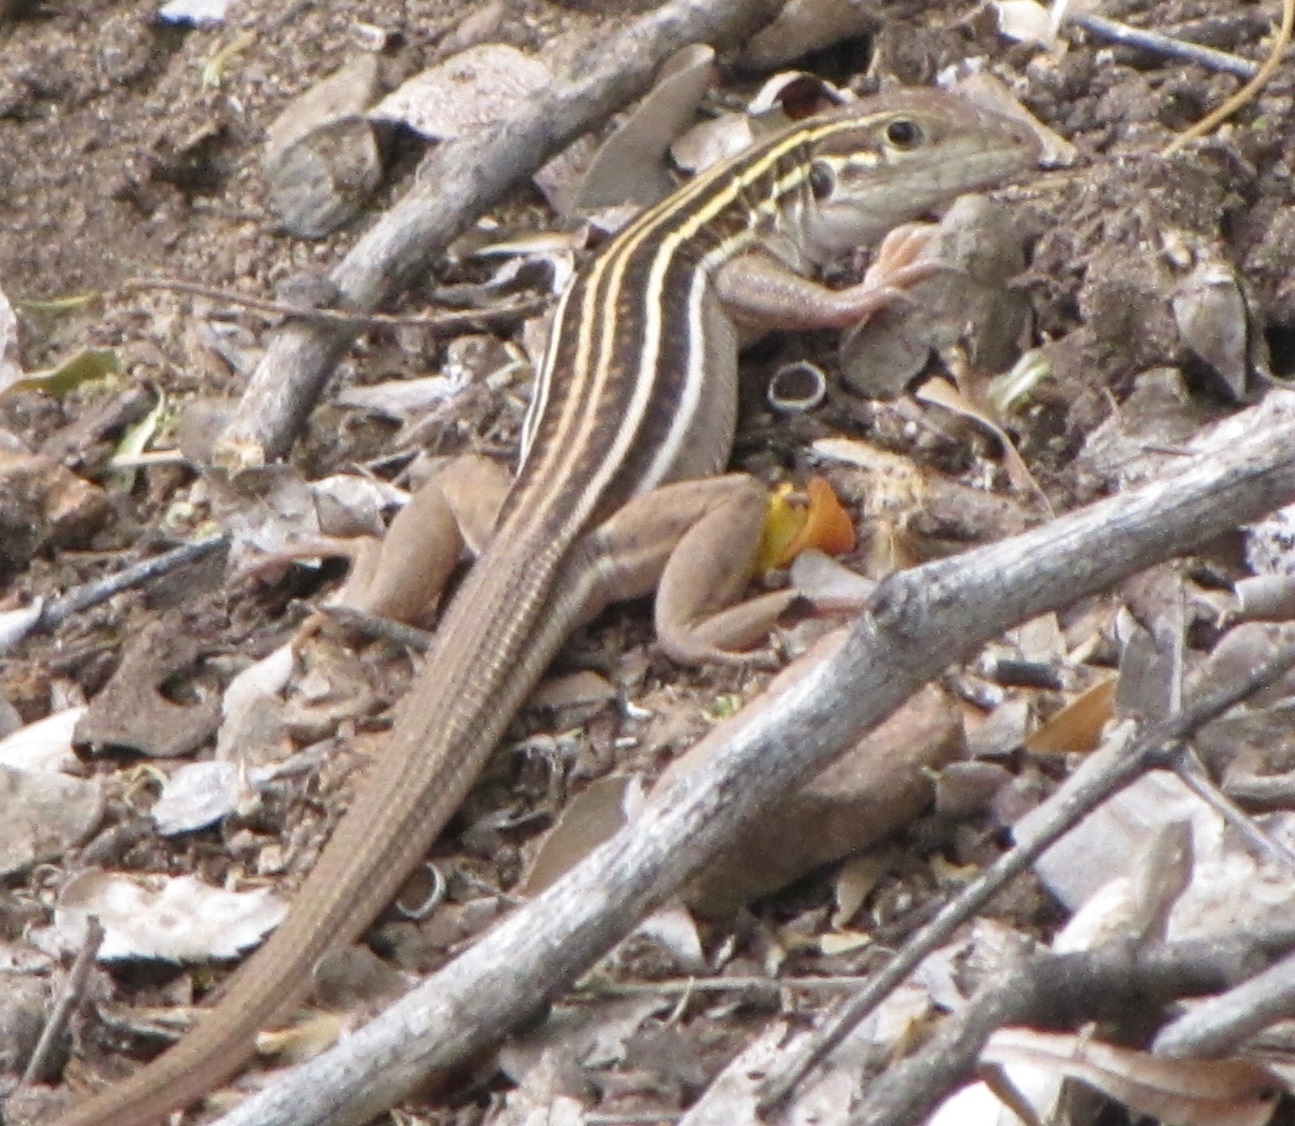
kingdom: Animalia
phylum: Chordata
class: Squamata
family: Teiidae
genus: Aspidoscelis
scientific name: Aspidoscelis sonorae
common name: Sonoran spotted whiptail
